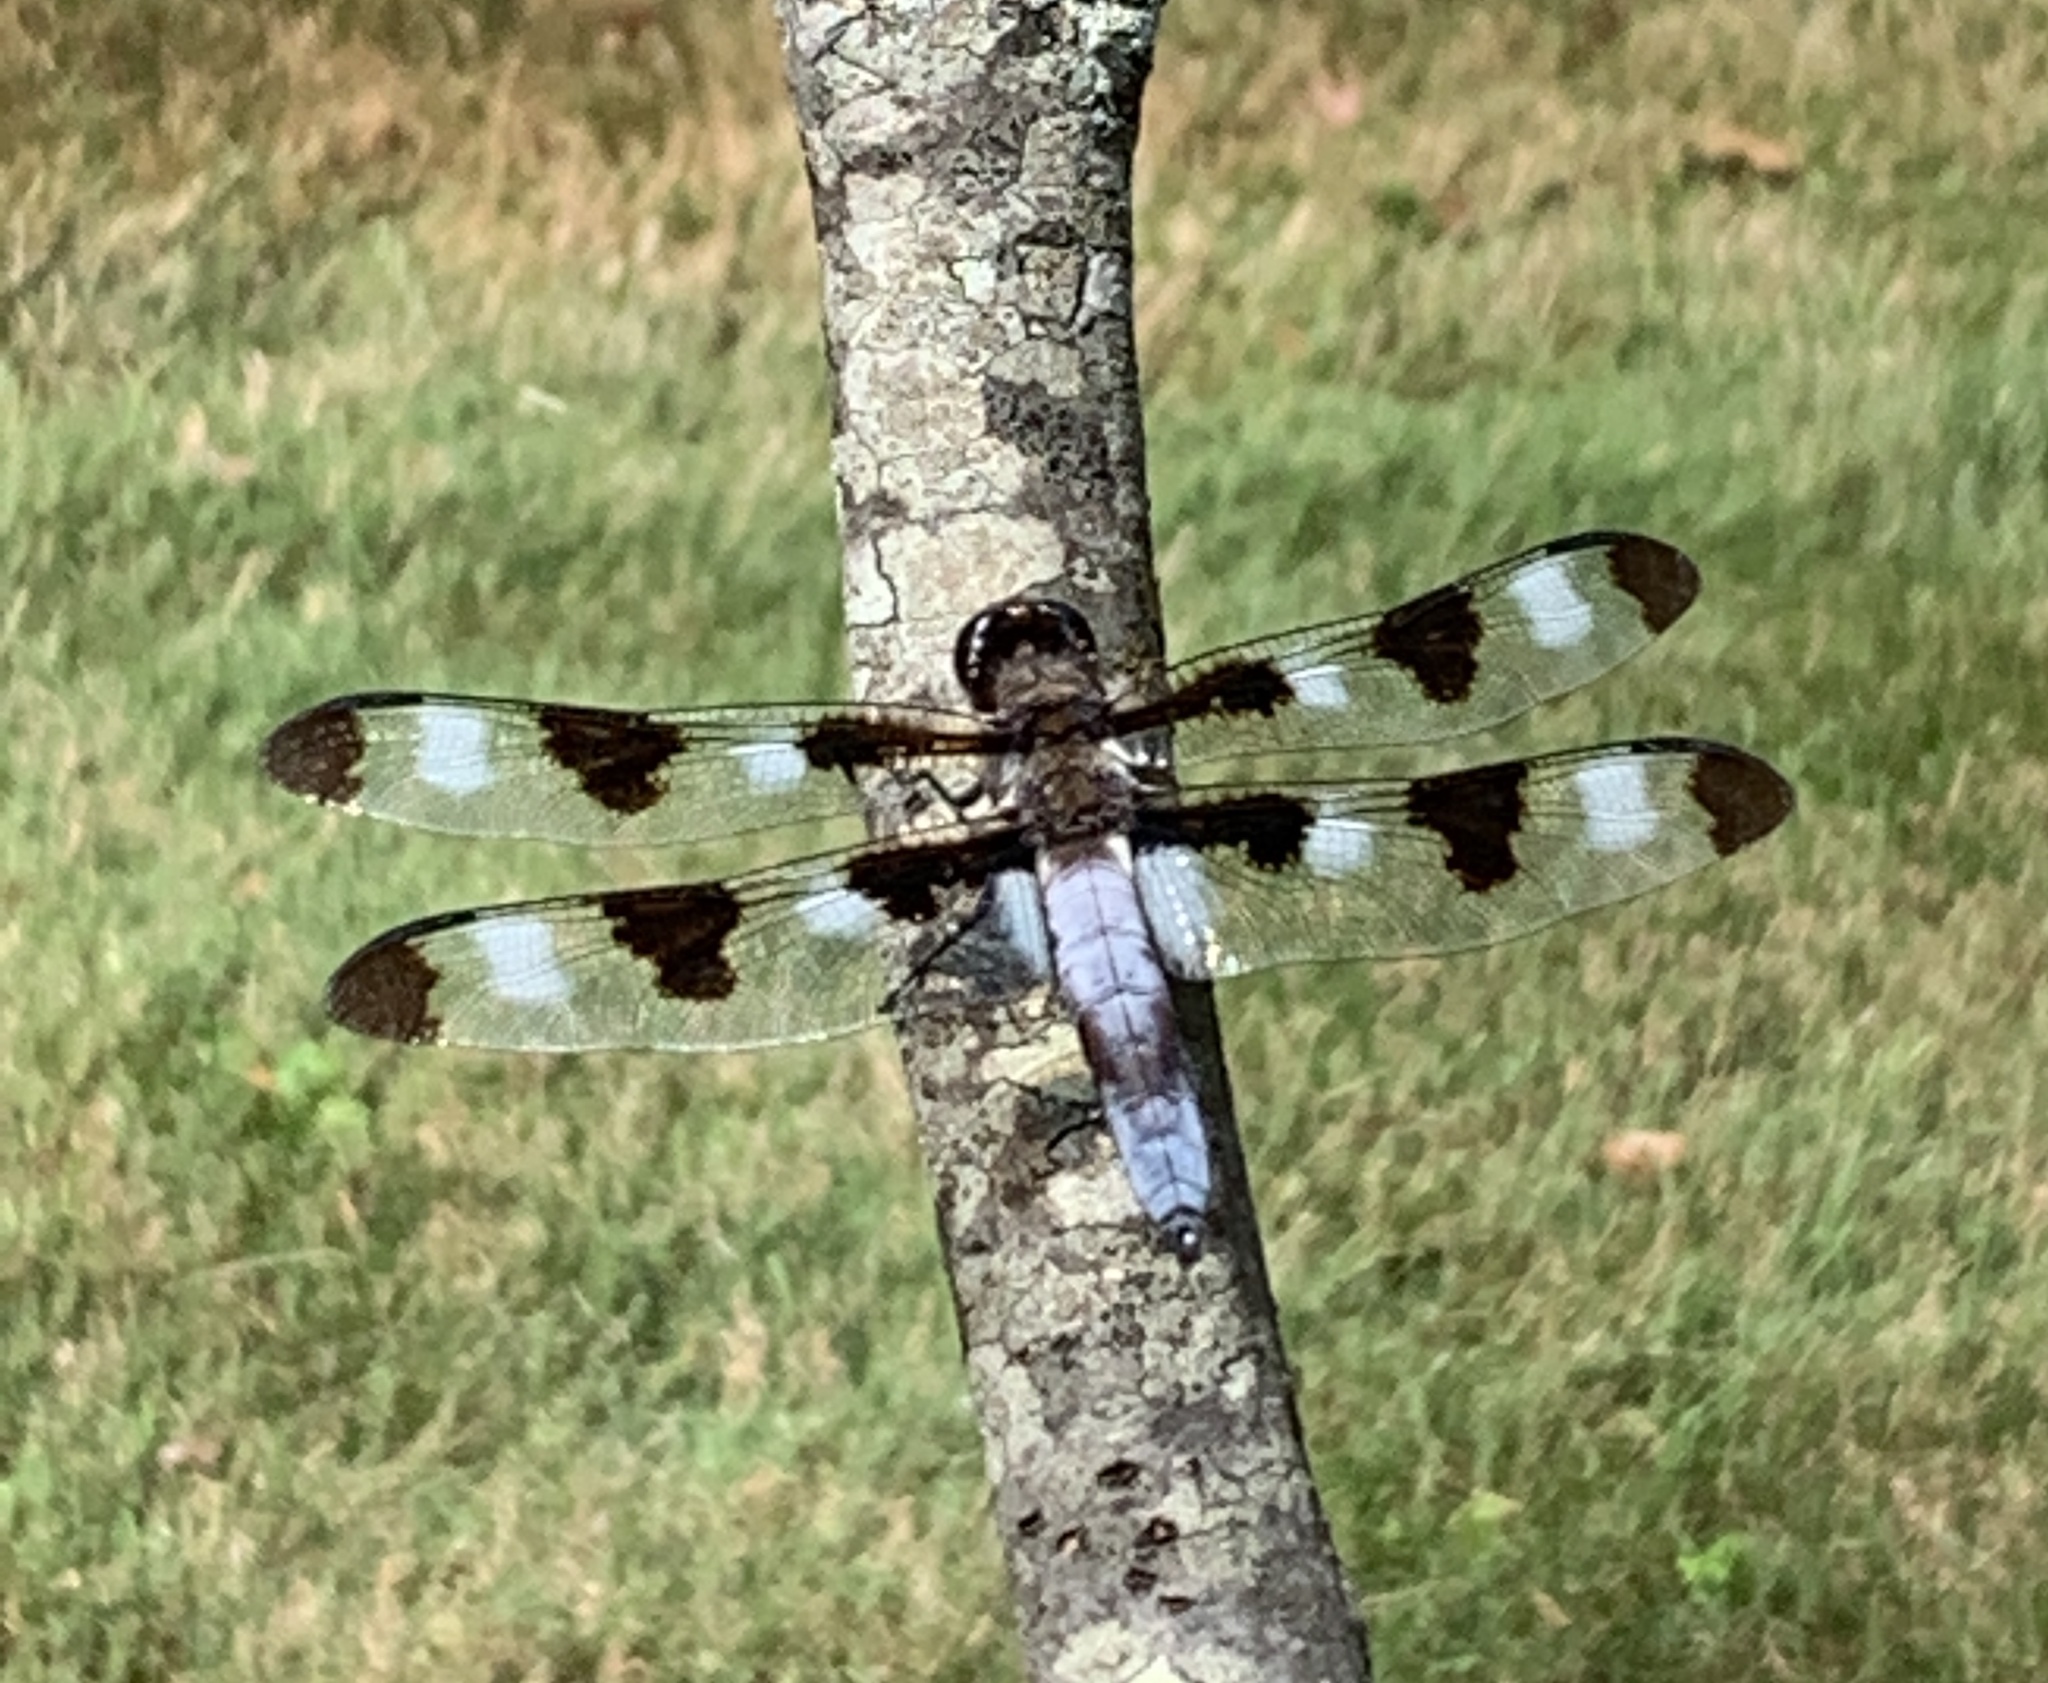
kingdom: Animalia
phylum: Arthropoda
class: Insecta
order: Odonata
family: Libellulidae
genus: Libellula
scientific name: Libellula pulchella
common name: Twelve-spotted skimmer
